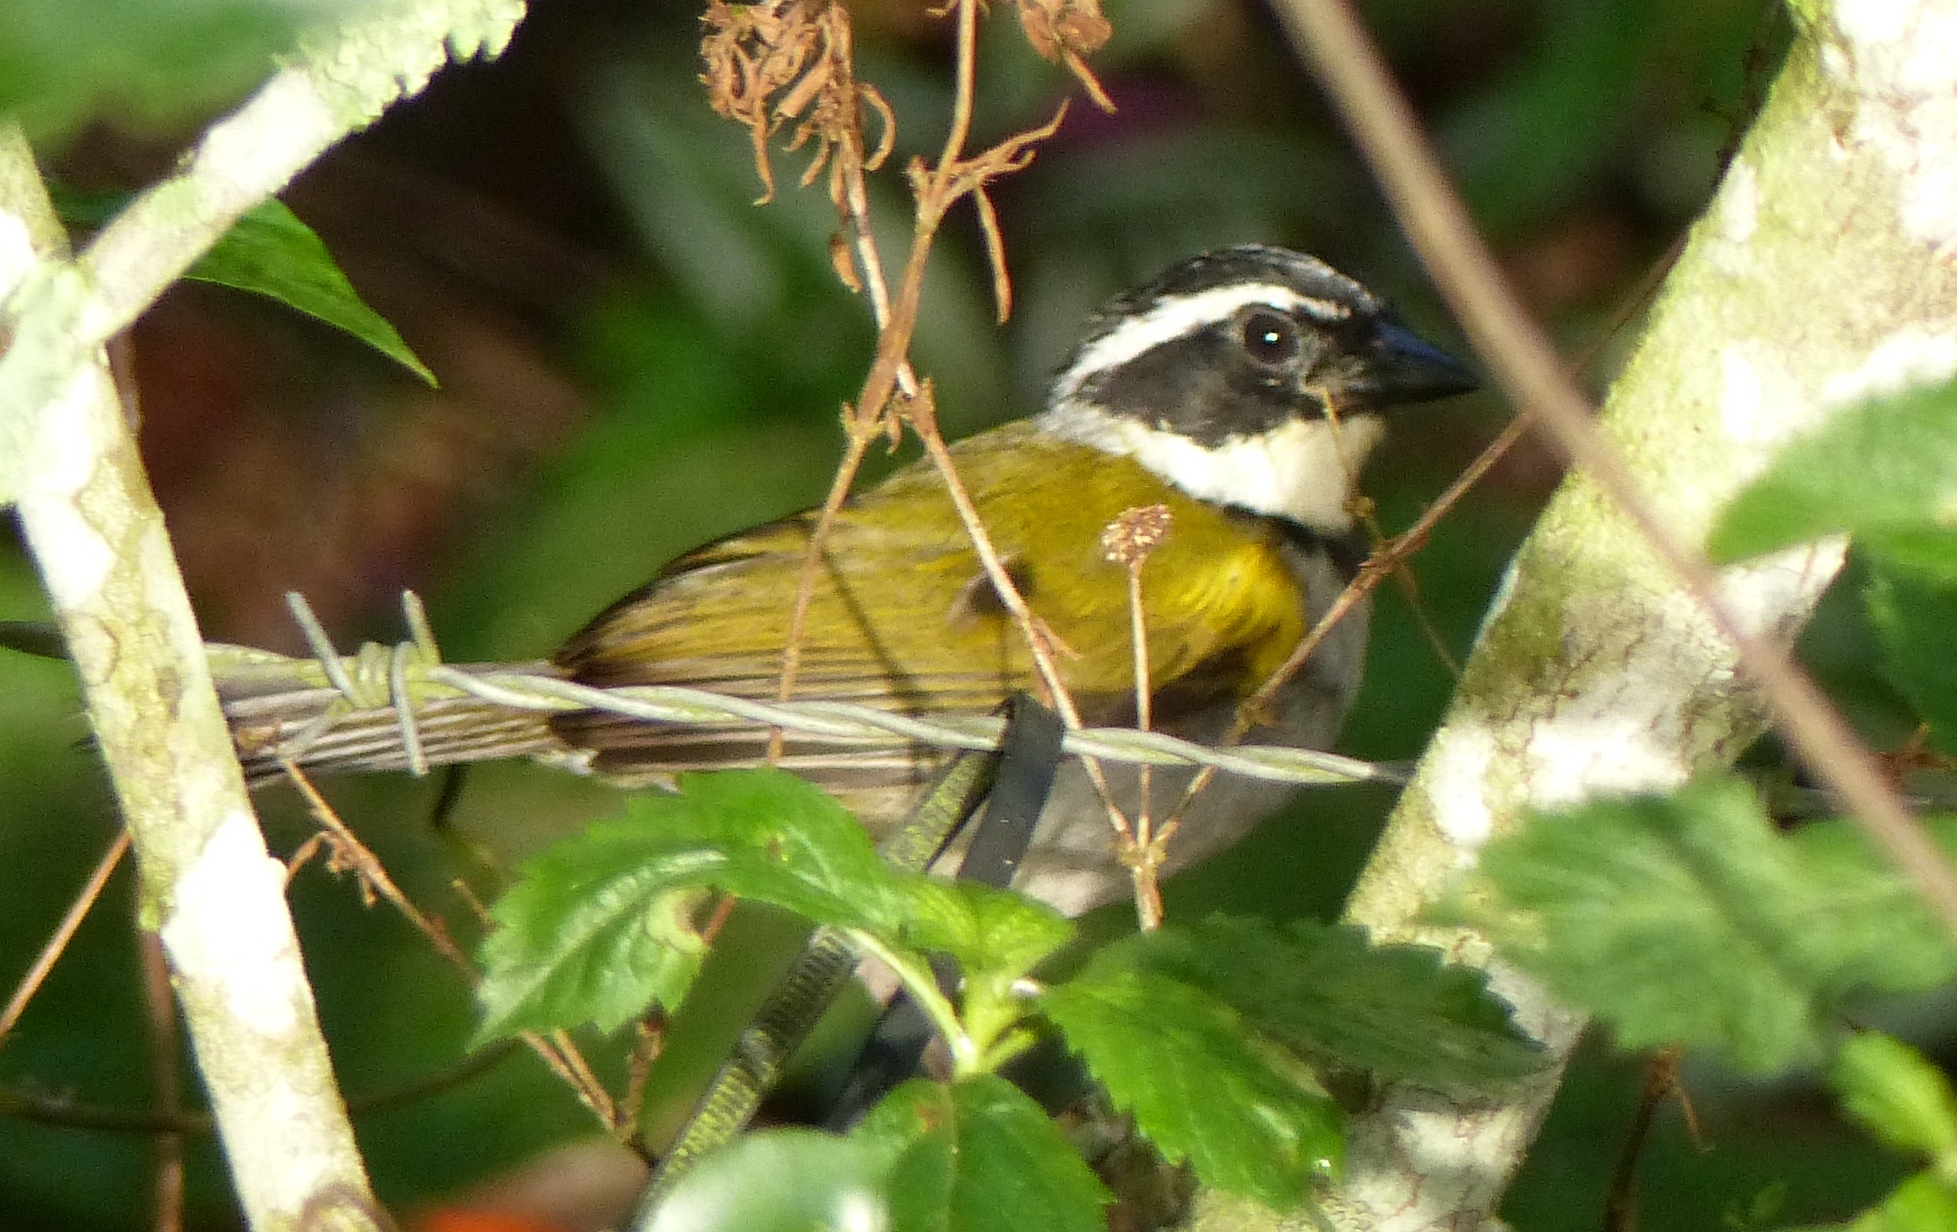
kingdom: Animalia
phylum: Chordata
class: Aves
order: Passeriformes
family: Passerellidae
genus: Arremon
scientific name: Arremon taciturnus
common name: Pectoral sparrow
